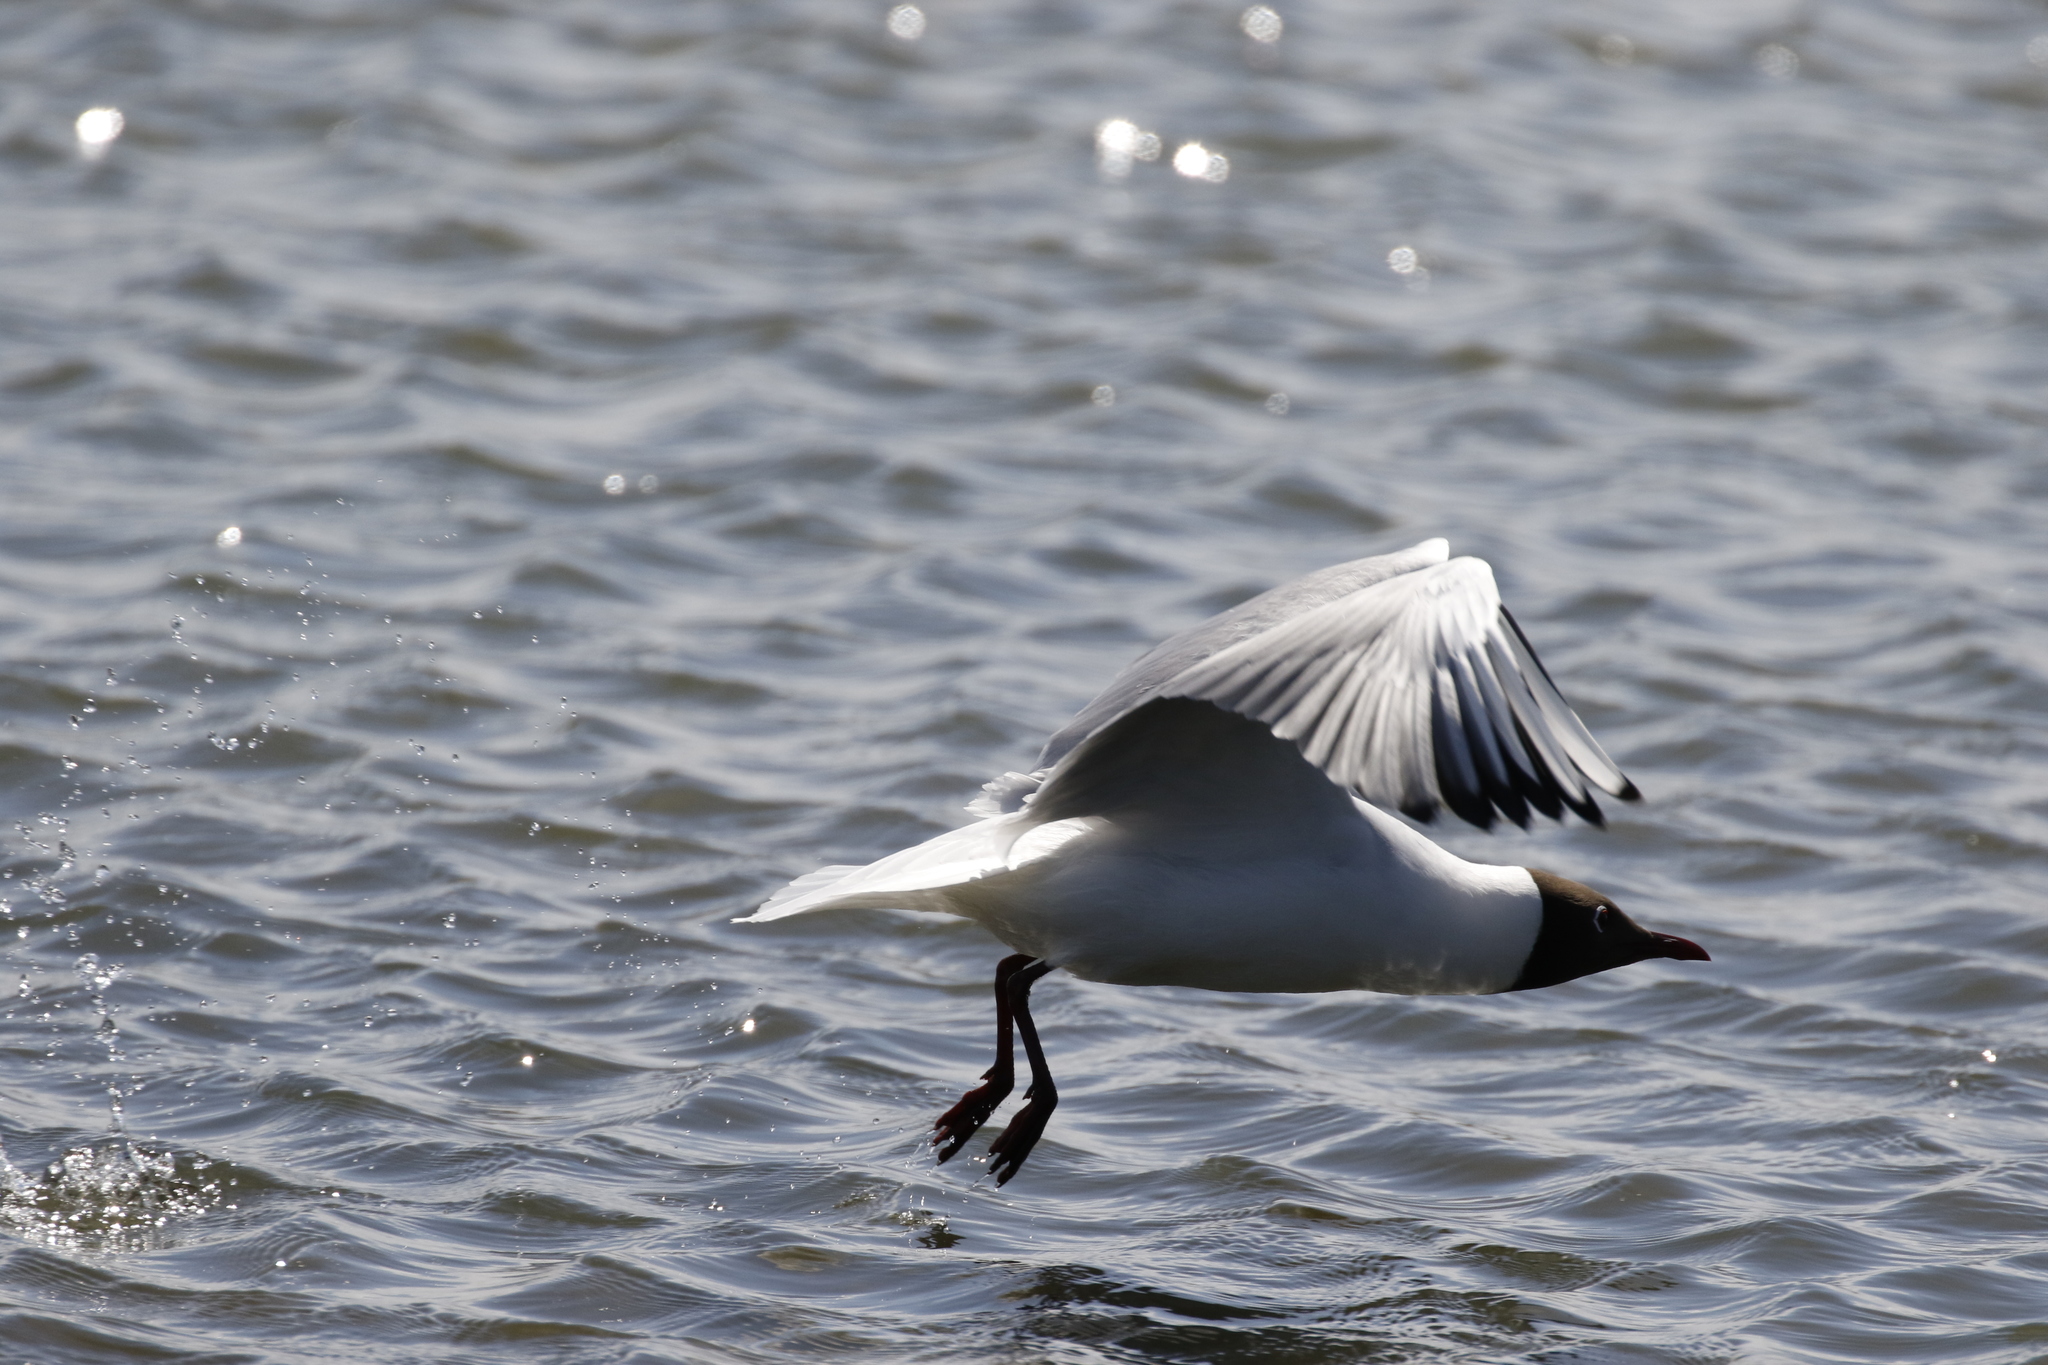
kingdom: Animalia
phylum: Chordata
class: Aves
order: Charadriiformes
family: Laridae
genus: Chroicocephalus
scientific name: Chroicocephalus ridibundus
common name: Black-headed gull
